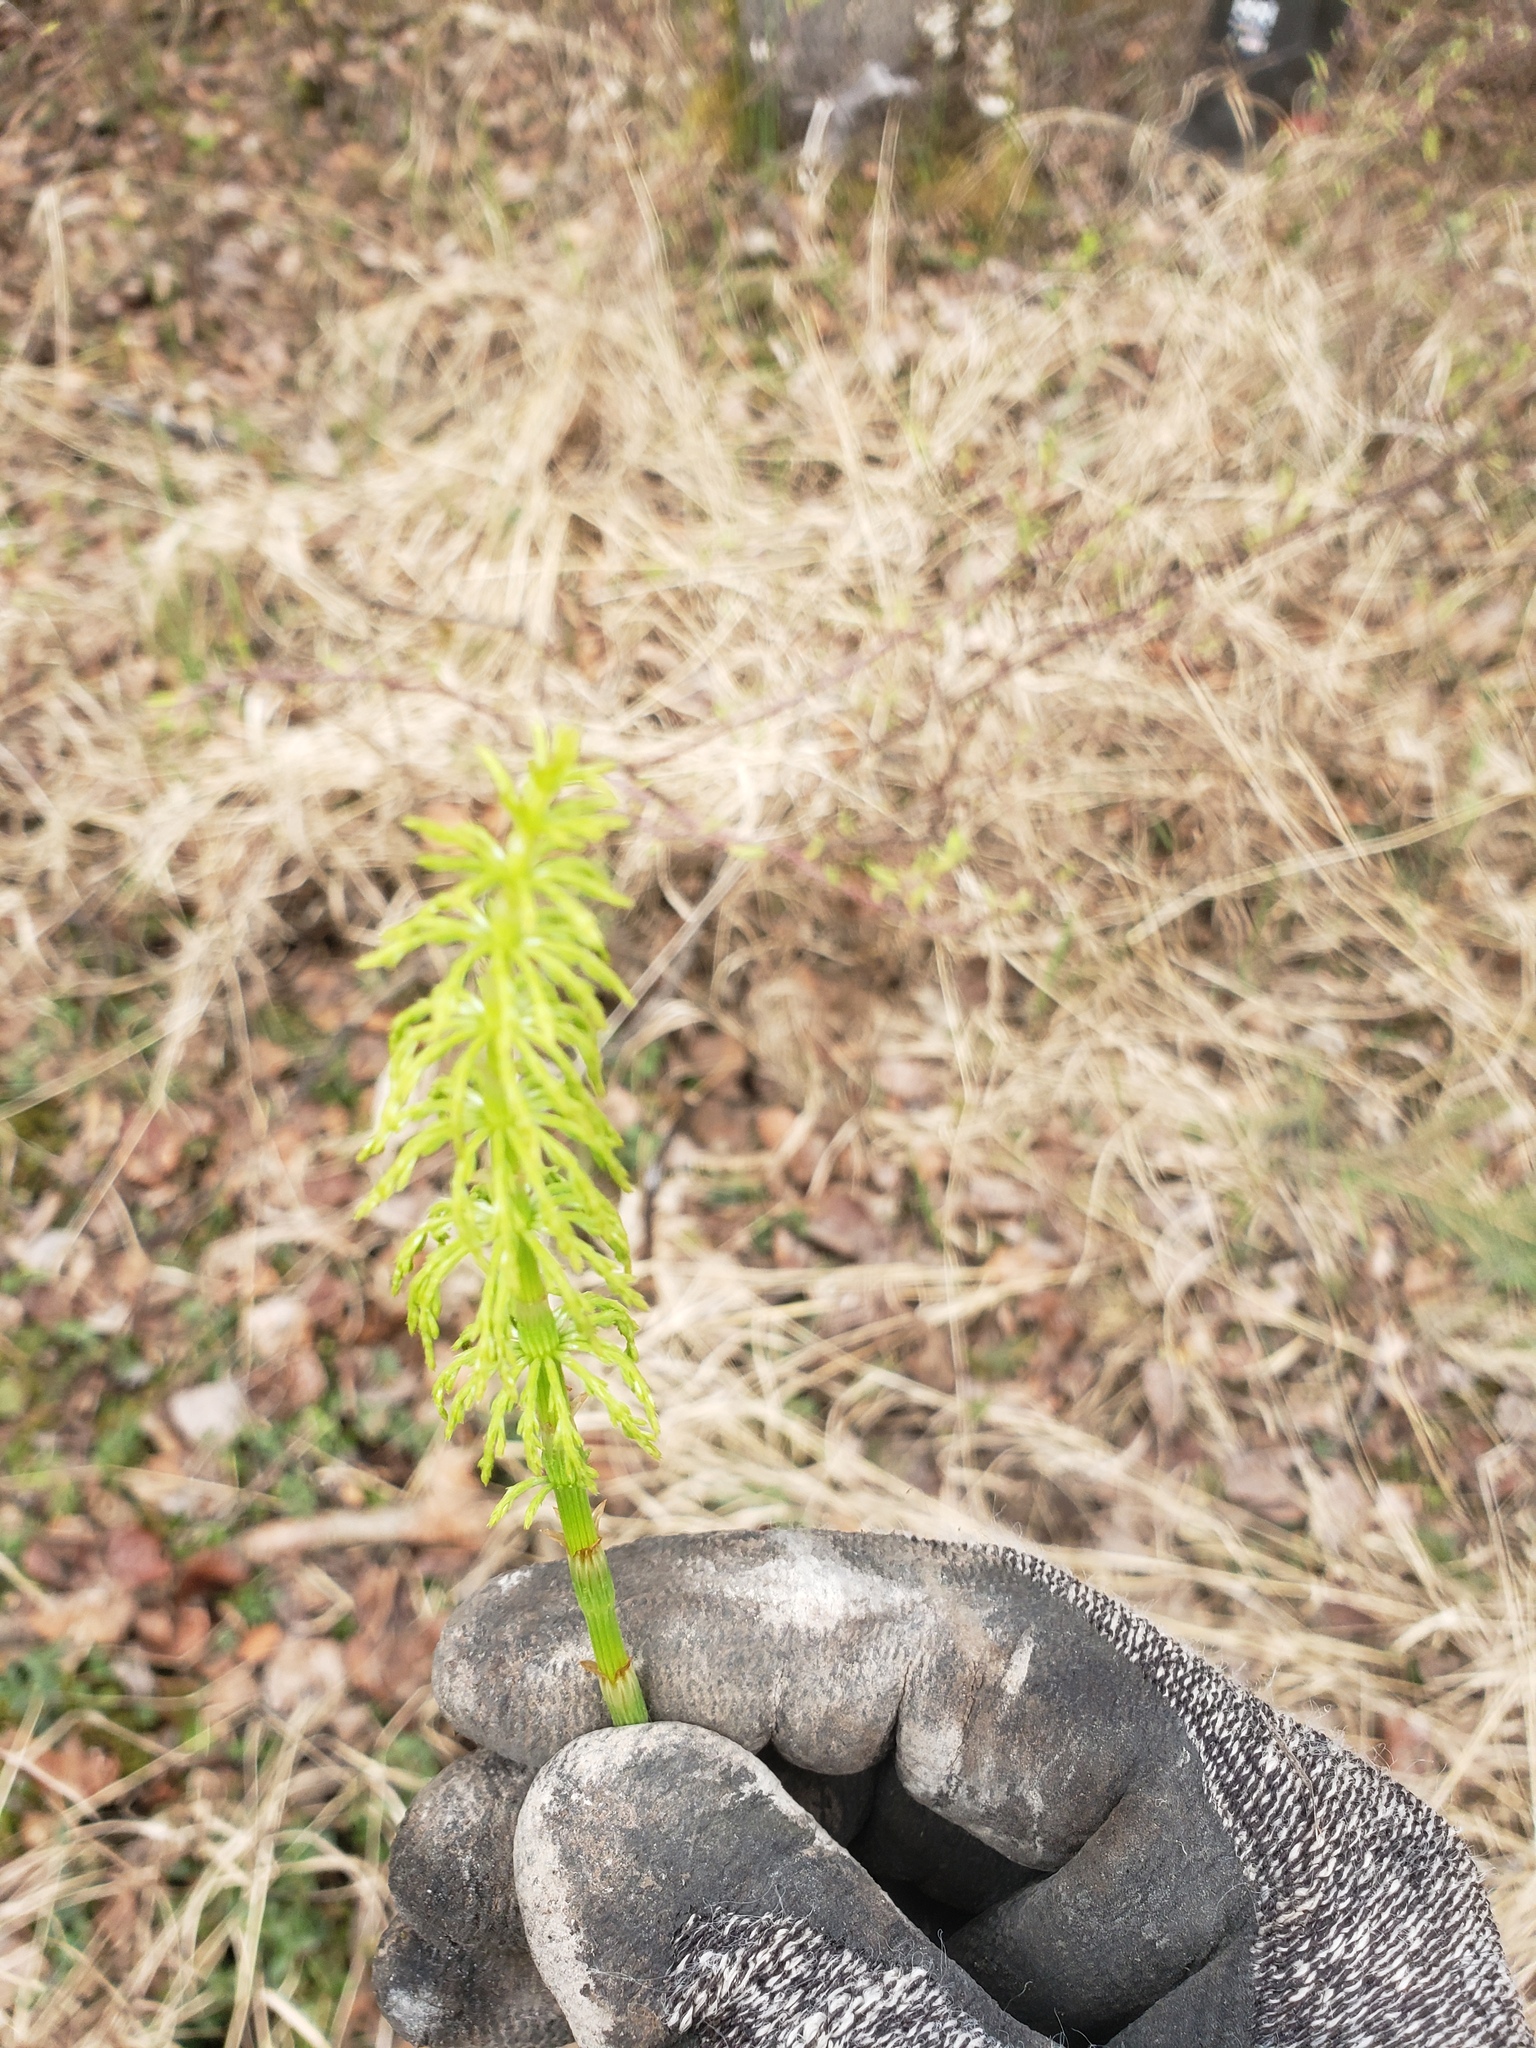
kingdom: Plantae
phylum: Tracheophyta
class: Polypodiopsida
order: Equisetales
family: Equisetaceae
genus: Equisetum
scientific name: Equisetum sylvaticum
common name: Wood horsetail
